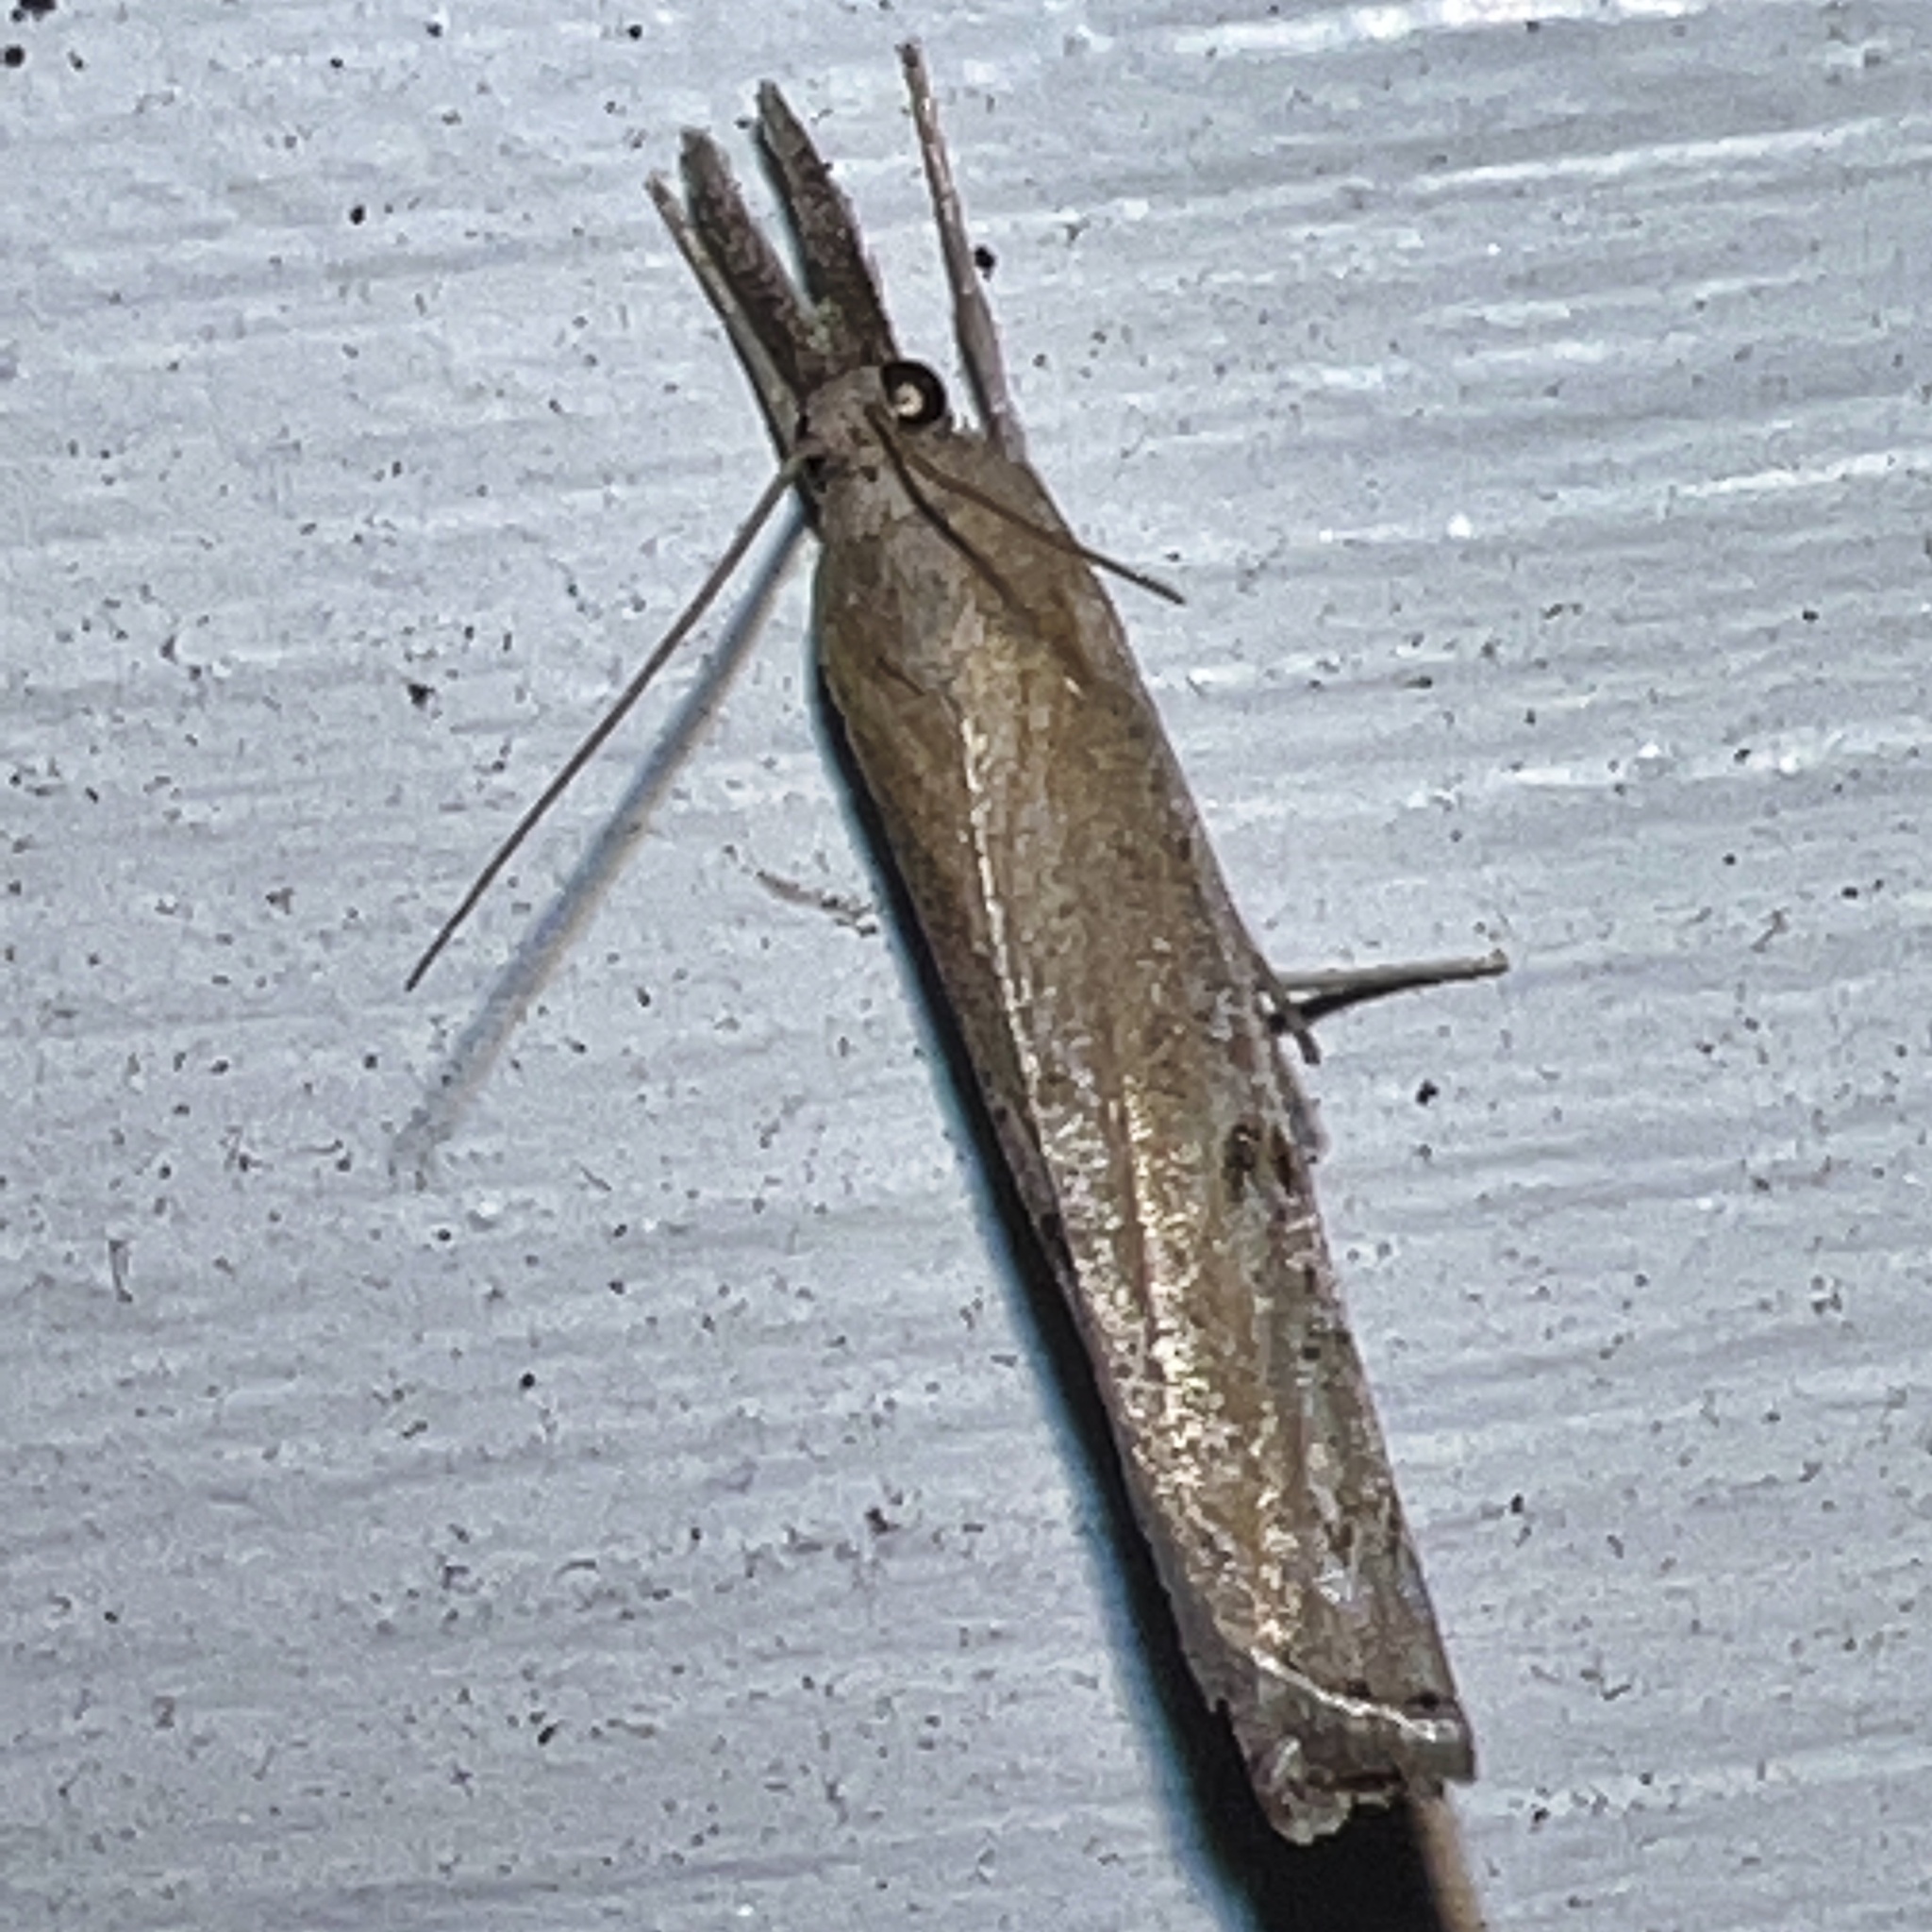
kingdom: Animalia
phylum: Arthropoda
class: Insecta
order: Lepidoptera
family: Crambidae
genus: Fissicrambus
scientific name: Fissicrambus mutabilis
